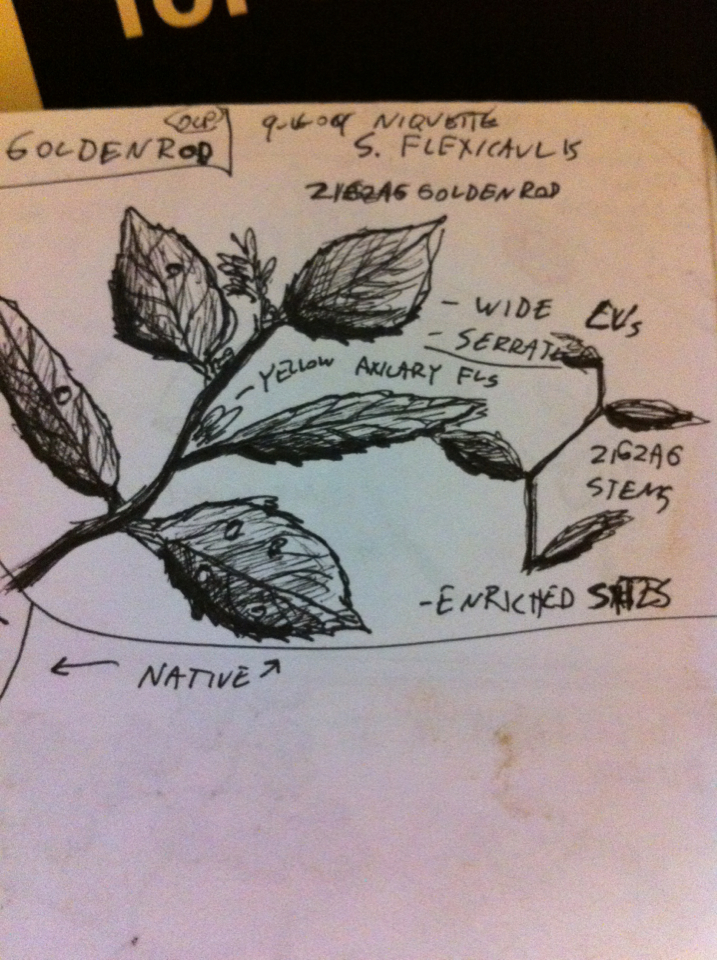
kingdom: Plantae
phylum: Tracheophyta
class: Magnoliopsida
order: Asterales
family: Asteraceae
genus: Solidago
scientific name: Solidago flexicaulis
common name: Zig-zag goldenrod
